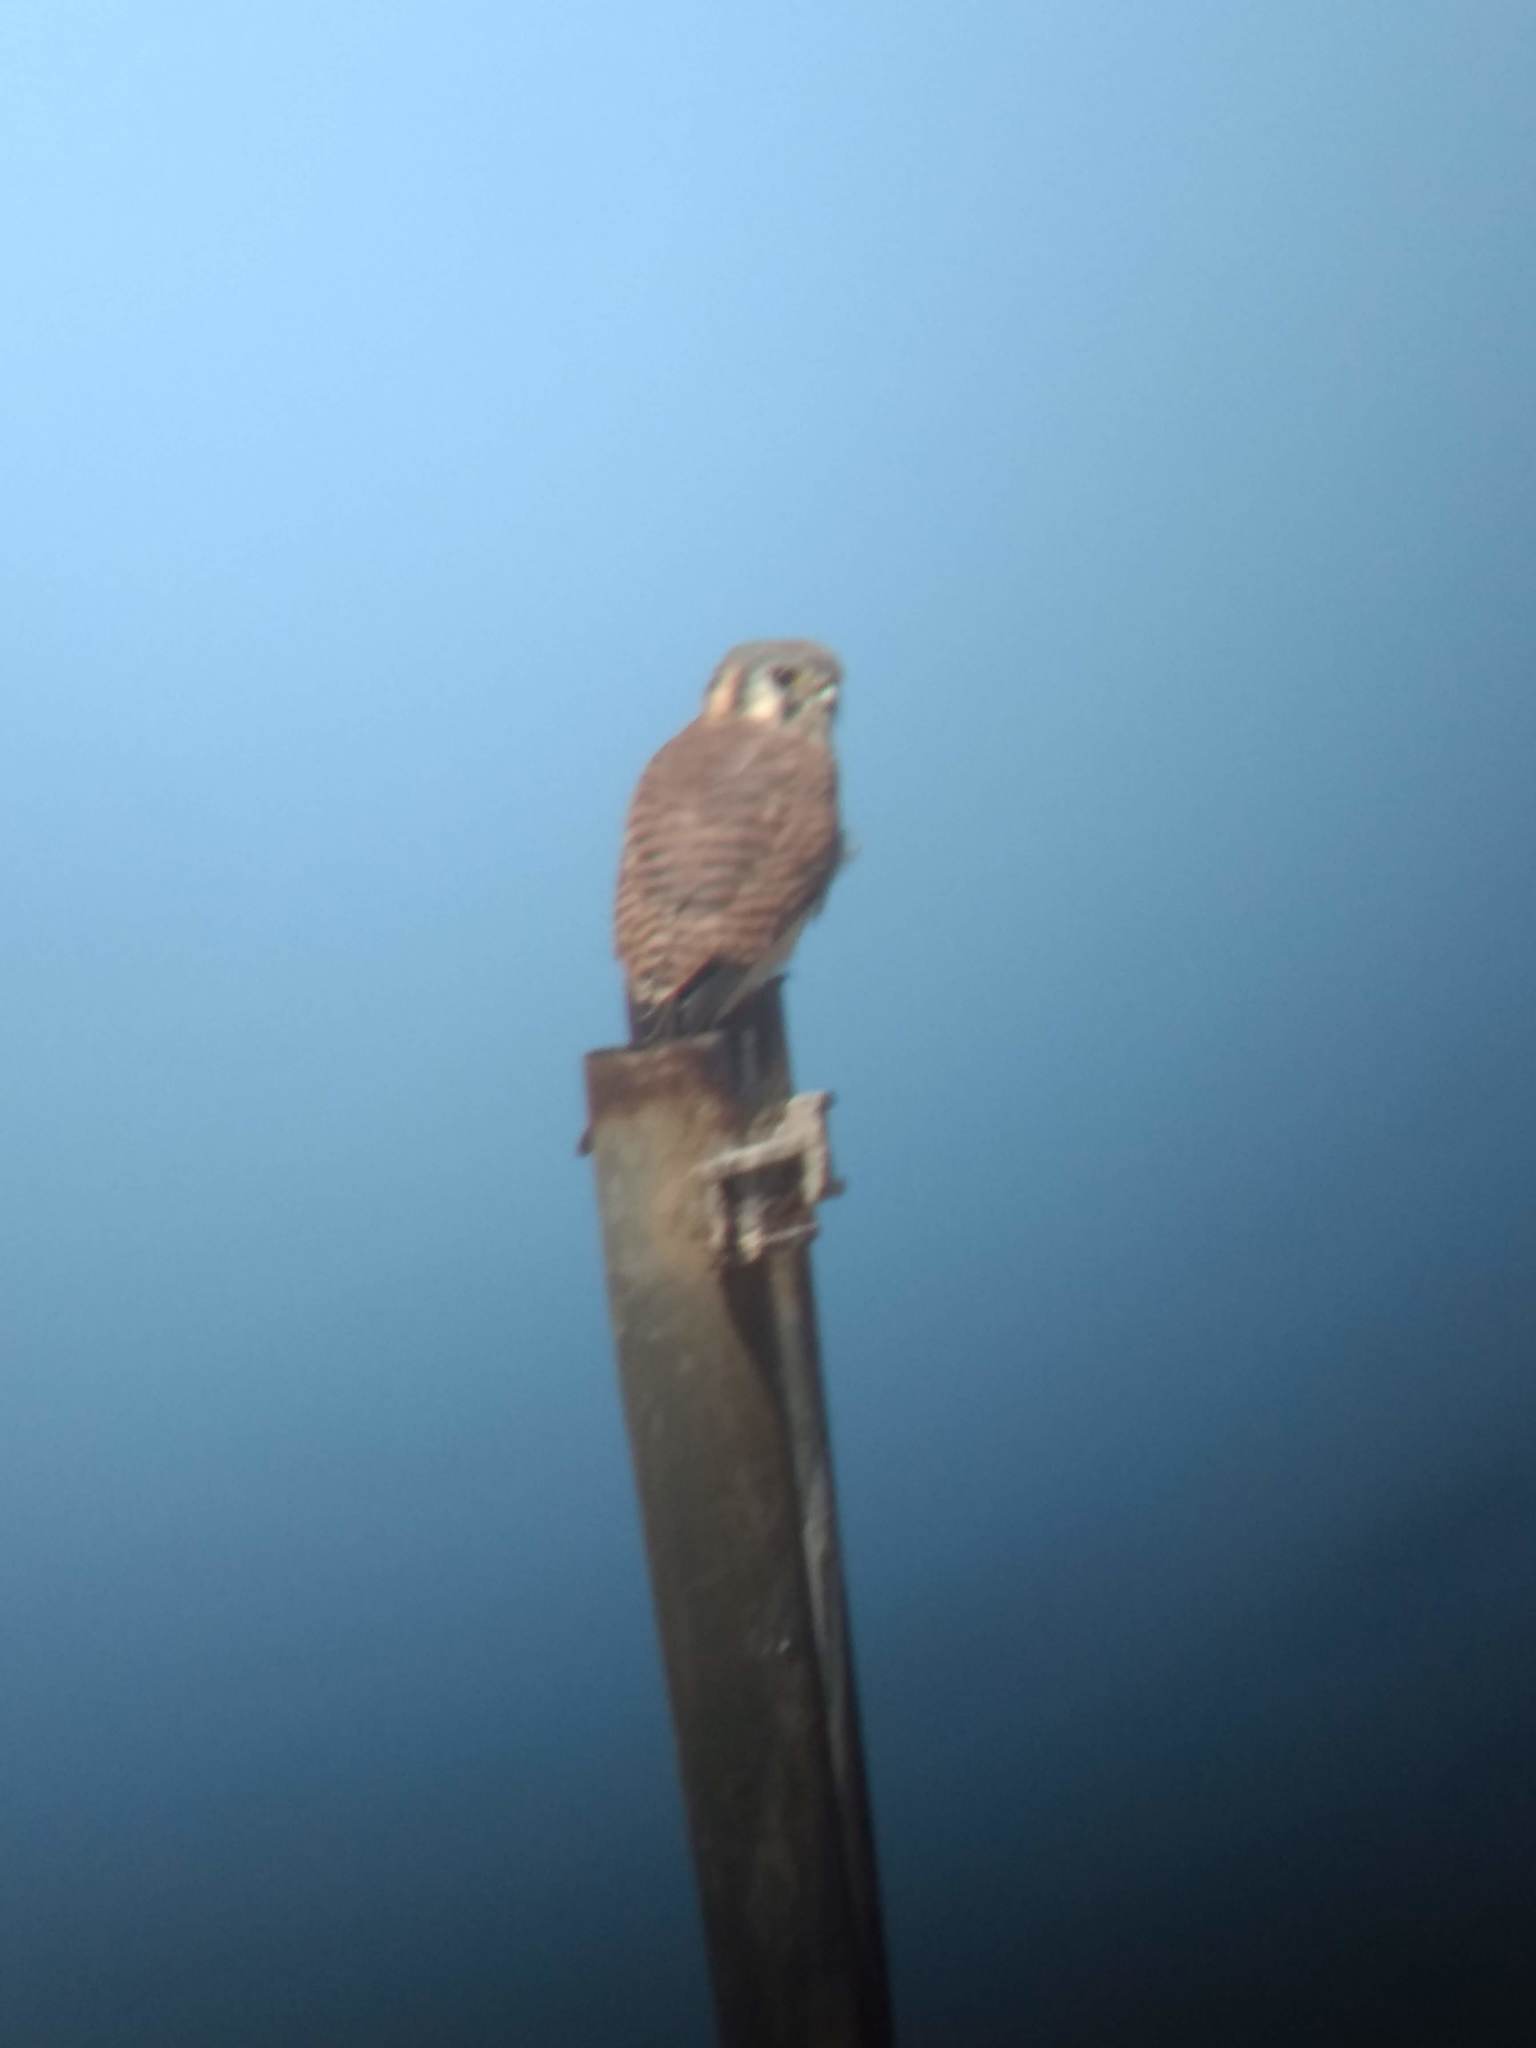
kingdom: Animalia
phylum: Chordata
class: Aves
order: Falconiformes
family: Falconidae
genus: Falco
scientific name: Falco sparverius
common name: American kestrel
